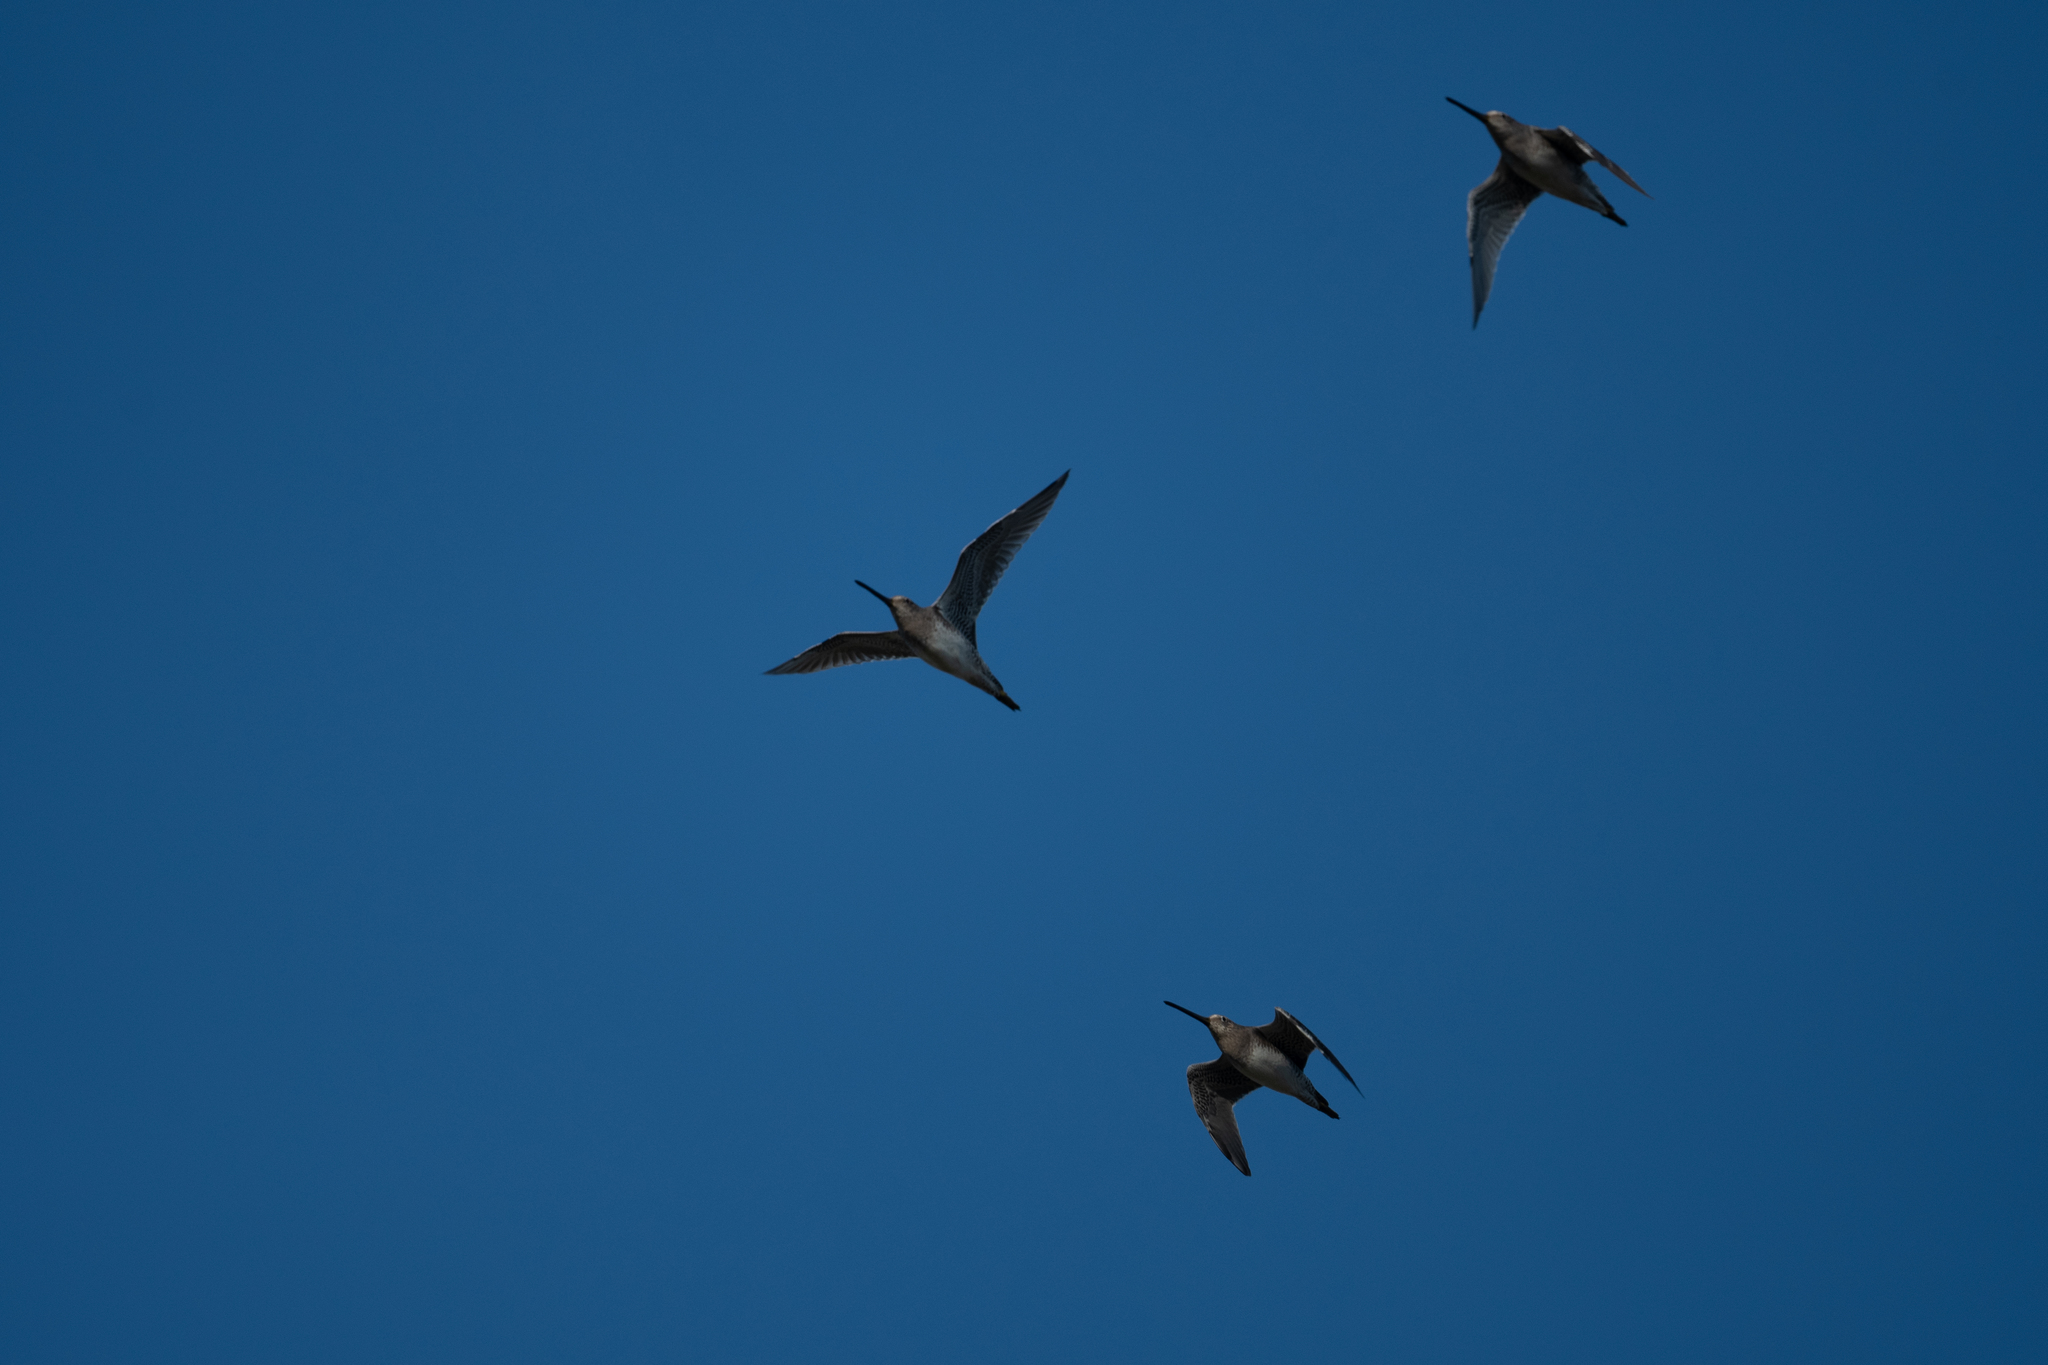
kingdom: Animalia
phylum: Chordata
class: Aves
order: Charadriiformes
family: Scolopacidae
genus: Limnodromus
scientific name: Limnodromus scolopaceus
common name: Long-billed dowitcher
